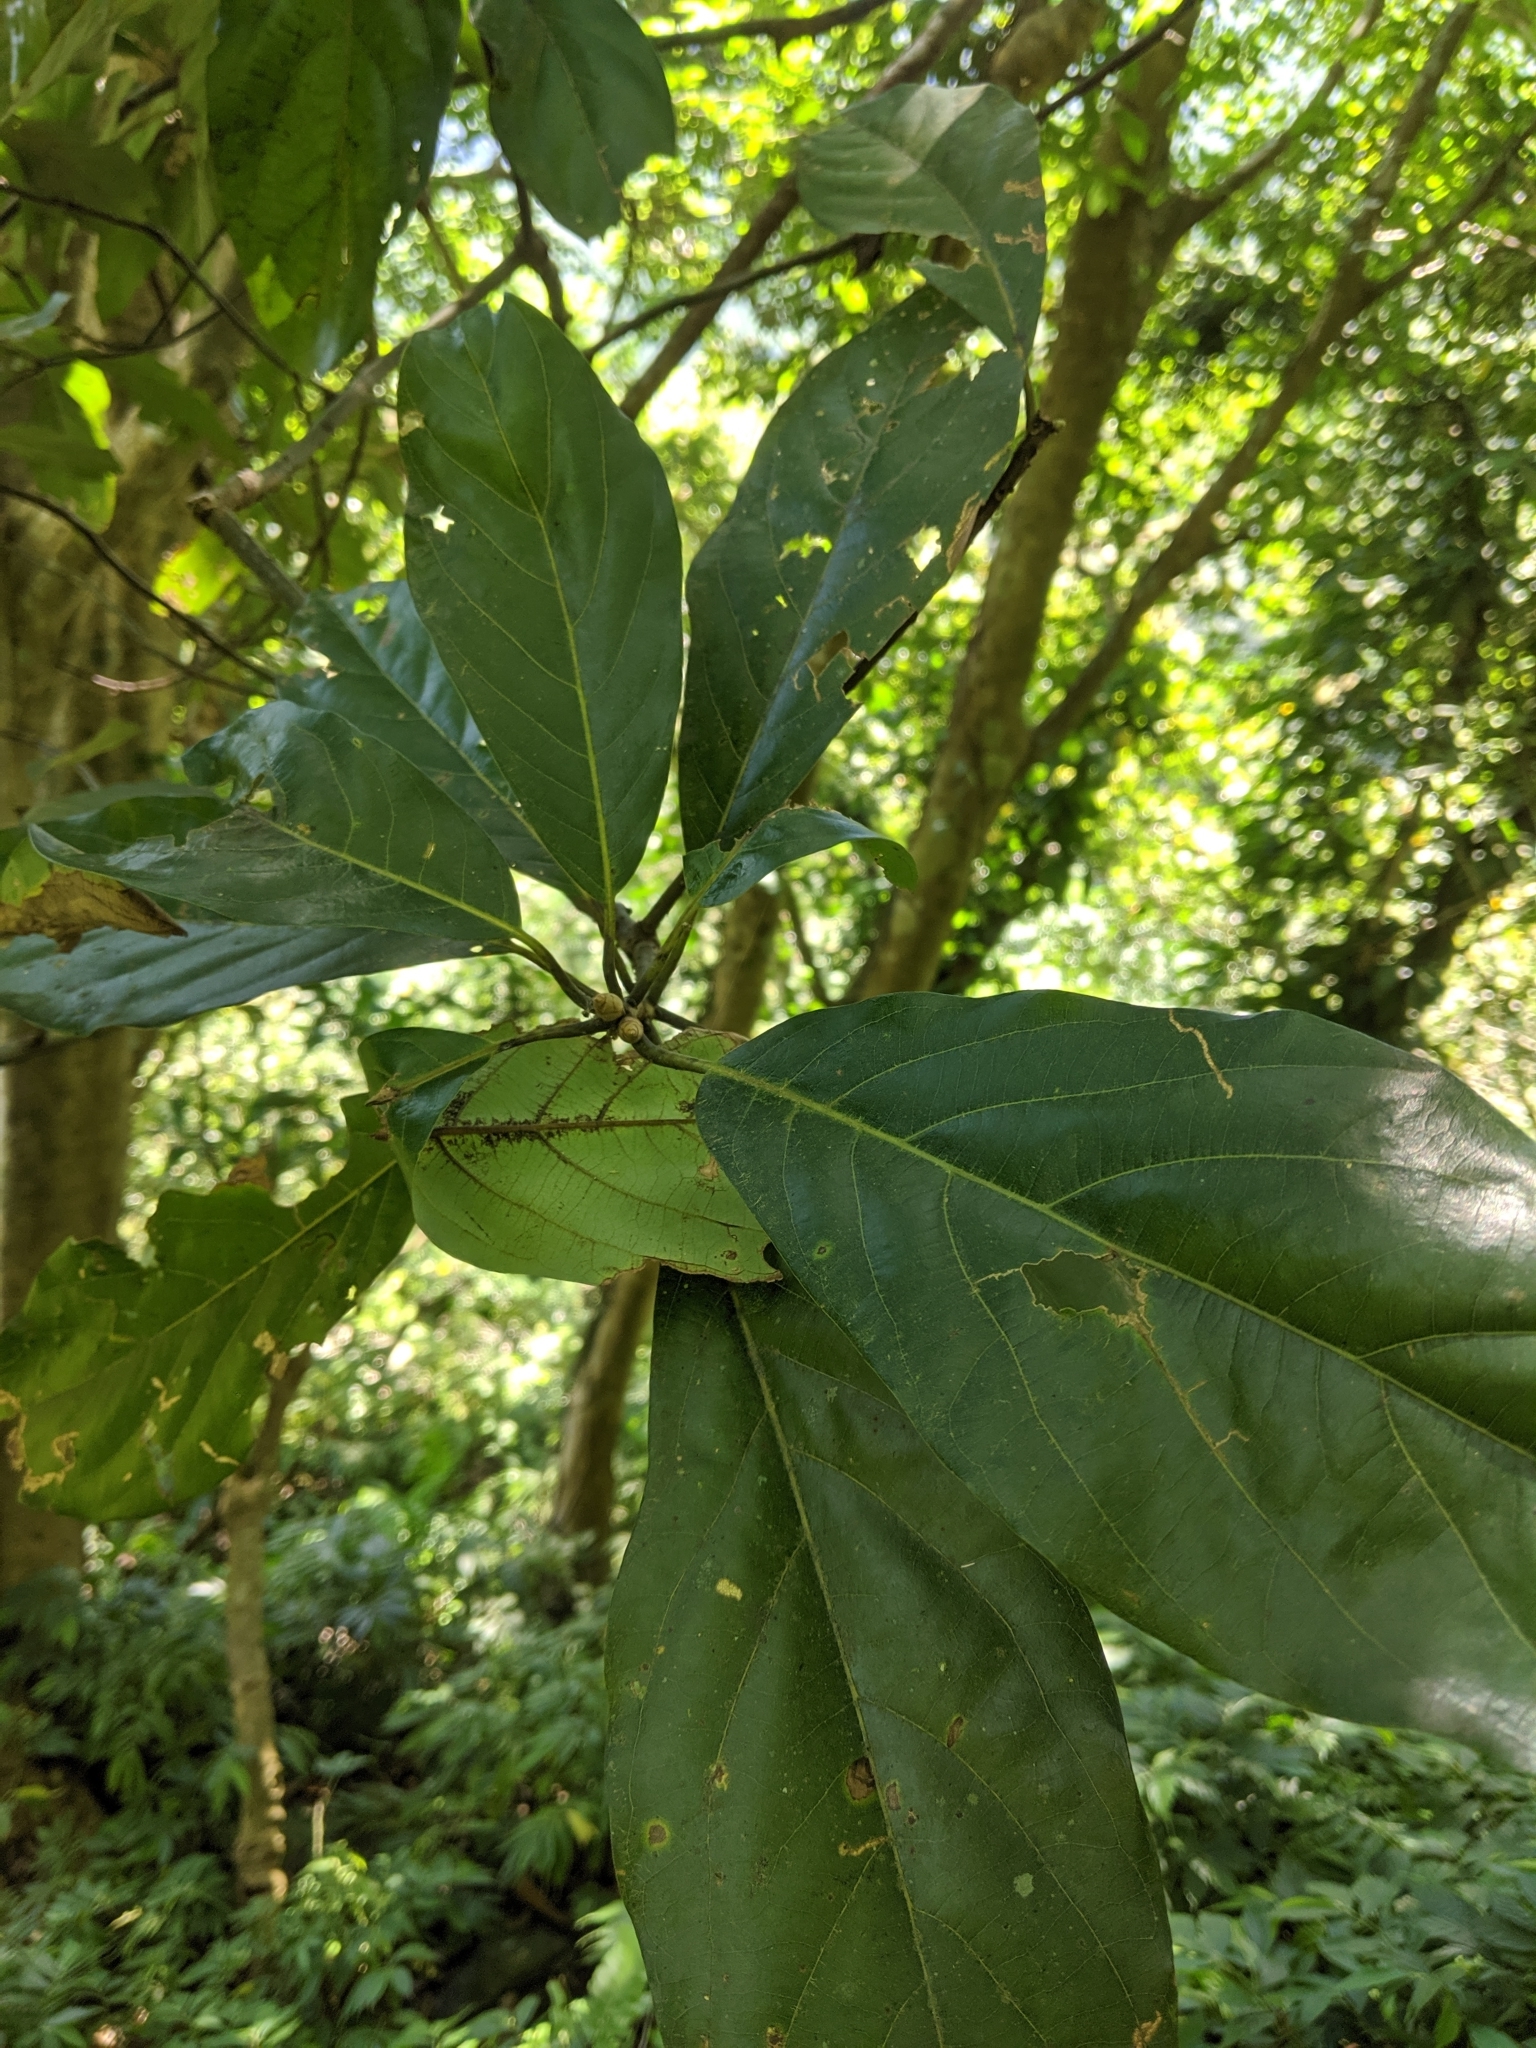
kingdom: Plantae
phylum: Tracheophyta
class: Magnoliopsida
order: Laurales
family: Lauraceae
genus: Lindera
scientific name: Lindera megaphylla
